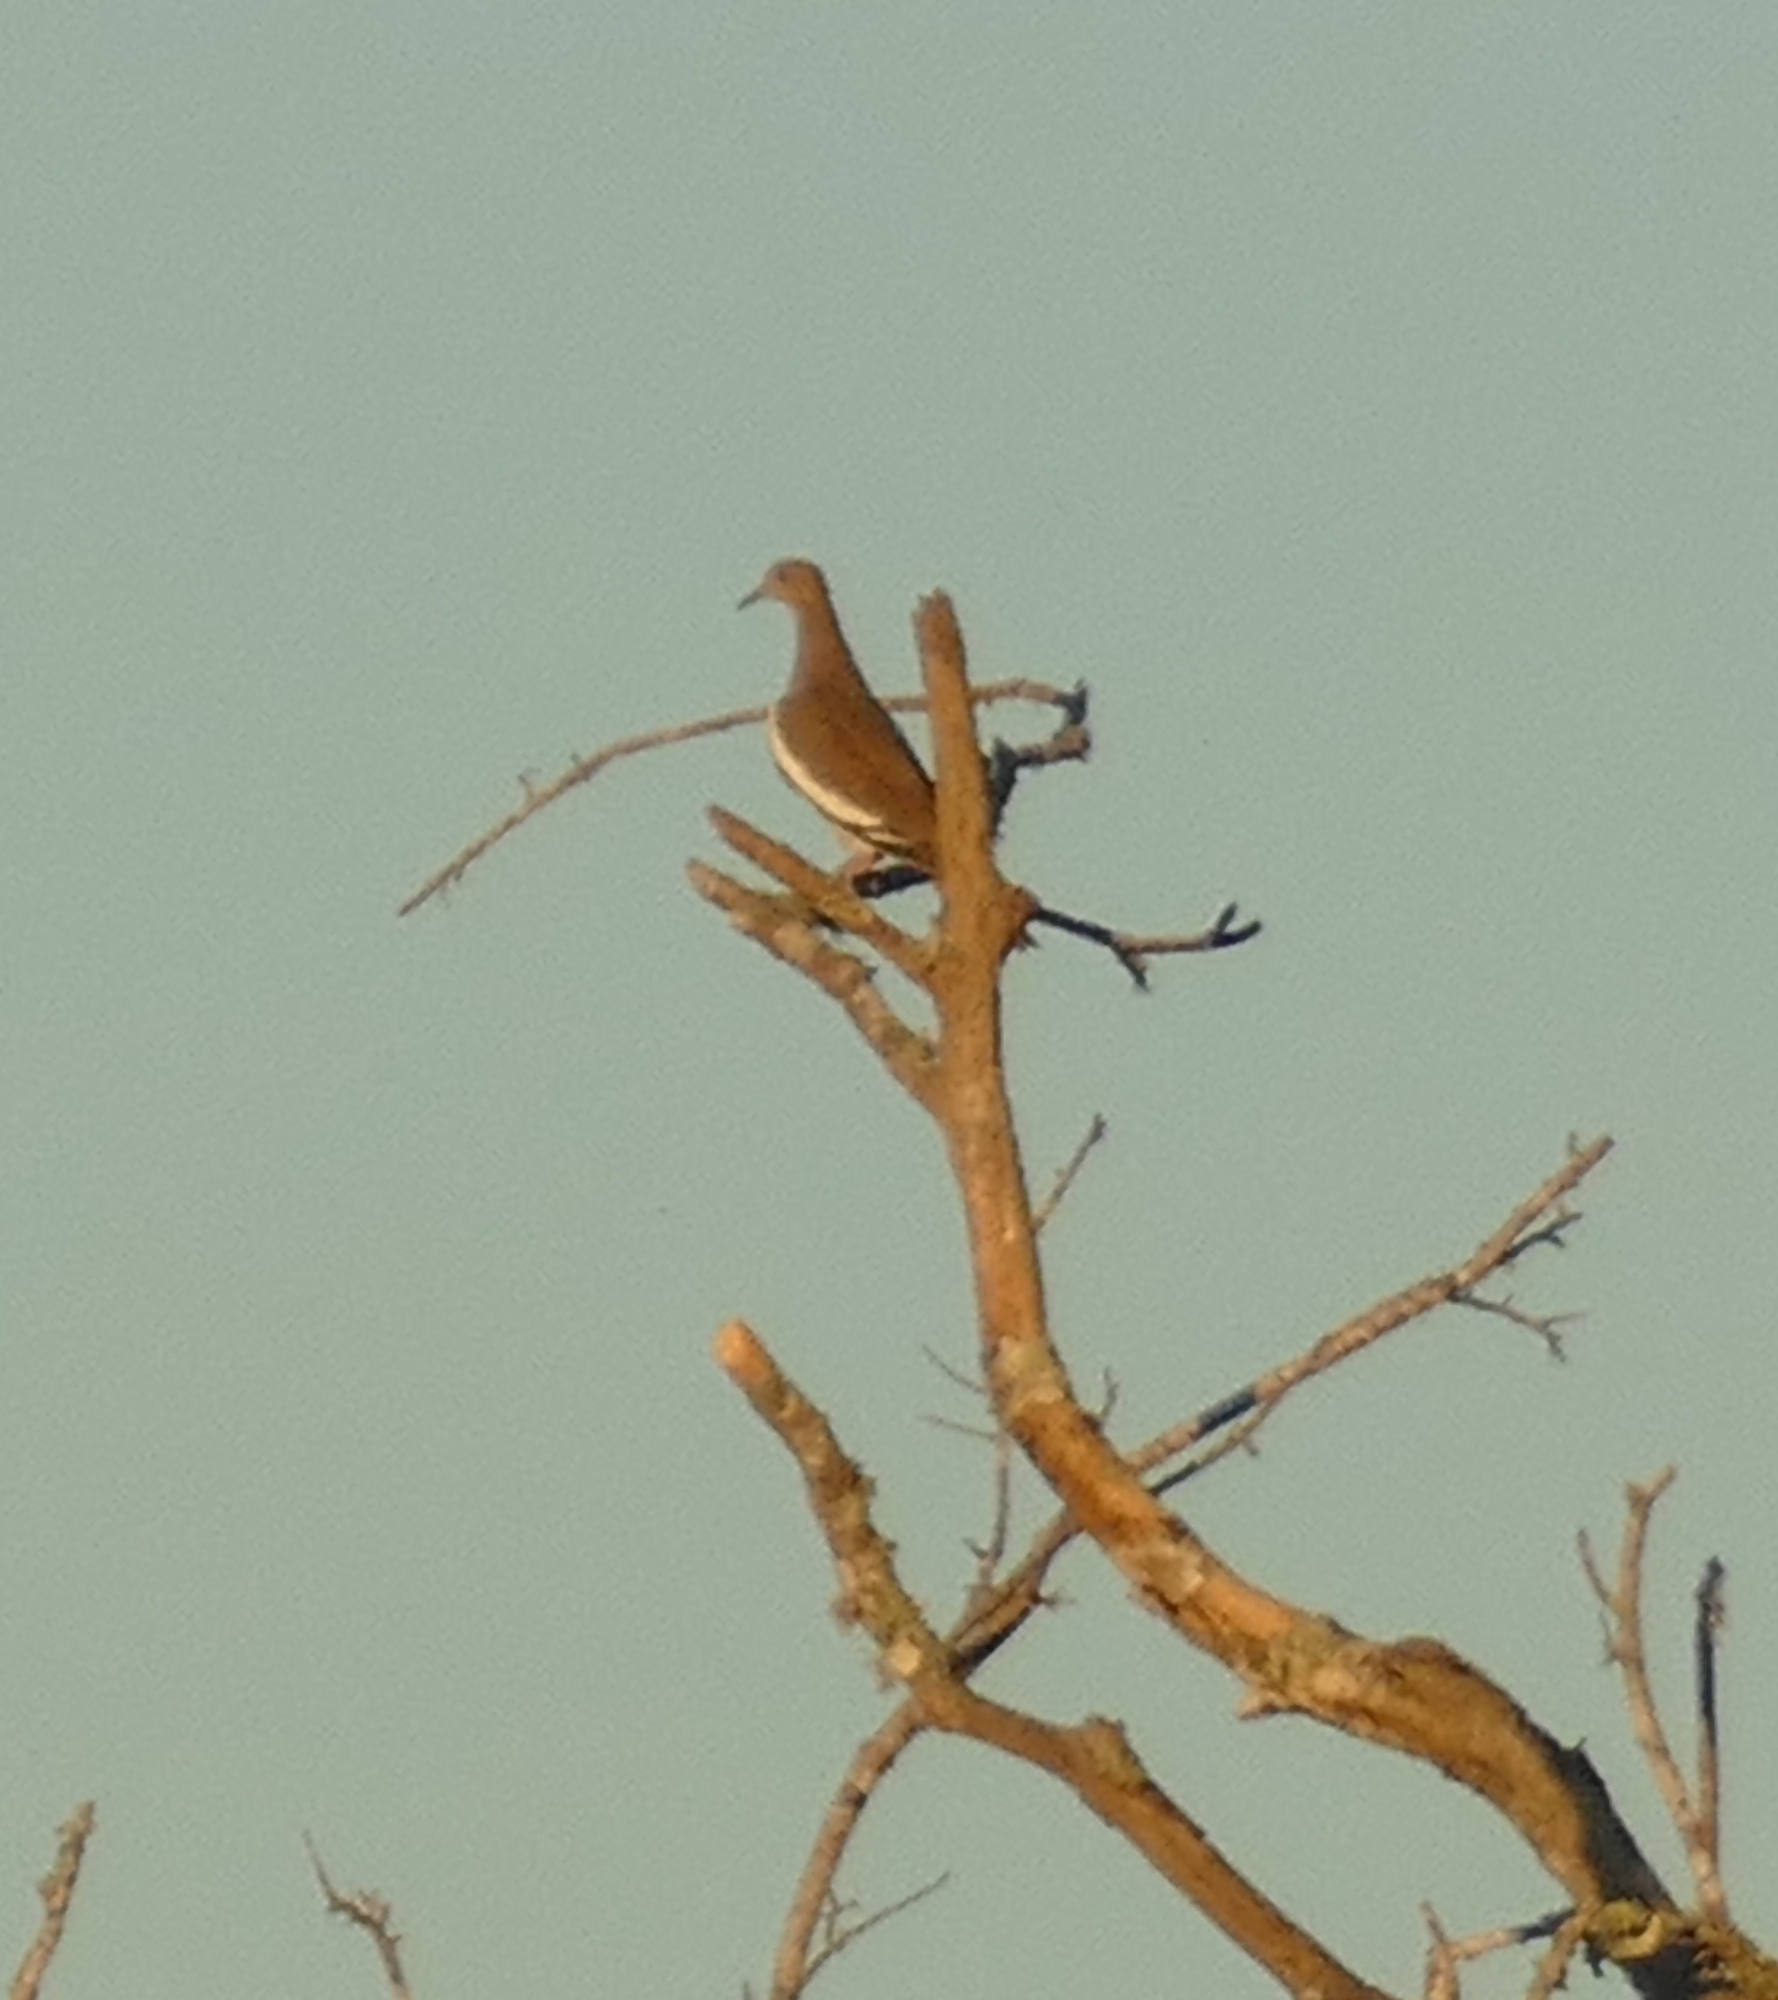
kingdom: Animalia
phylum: Chordata
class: Aves
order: Columbiformes
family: Columbidae
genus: Zenaida
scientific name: Zenaida asiatica
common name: White-winged dove
